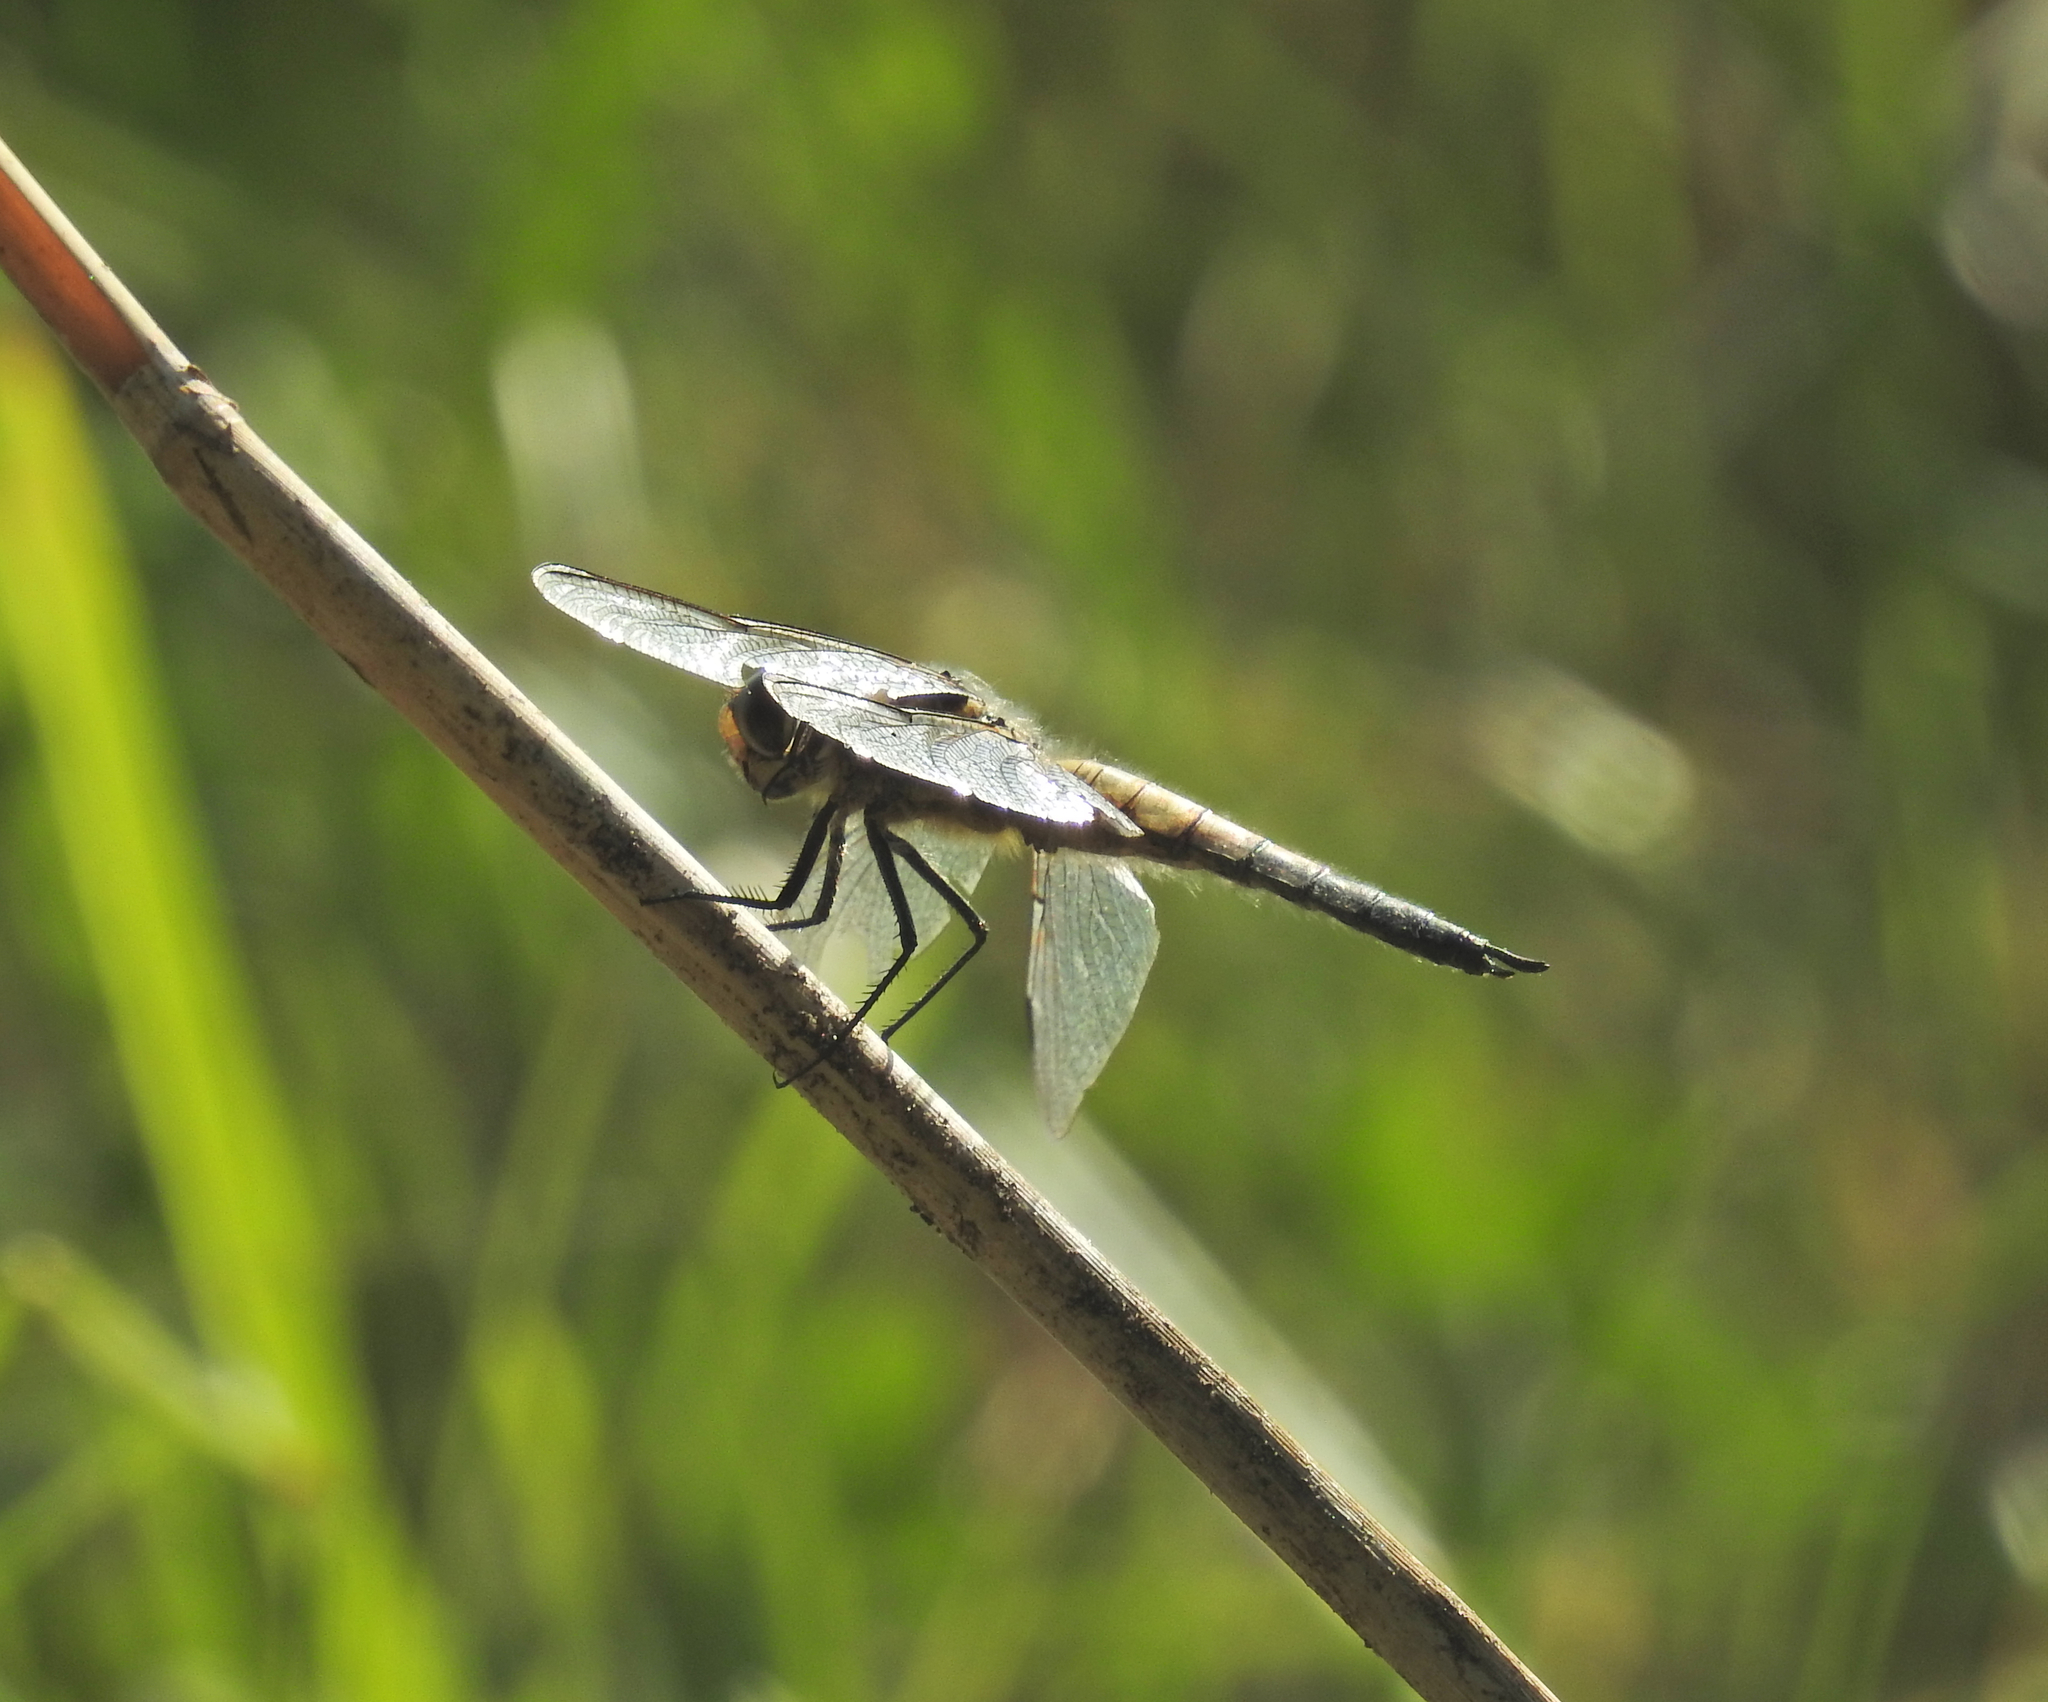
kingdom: Animalia
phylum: Arthropoda
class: Insecta
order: Odonata
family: Libellulidae
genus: Libellula
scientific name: Libellula quadrimaculata
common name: Four-spotted chaser
